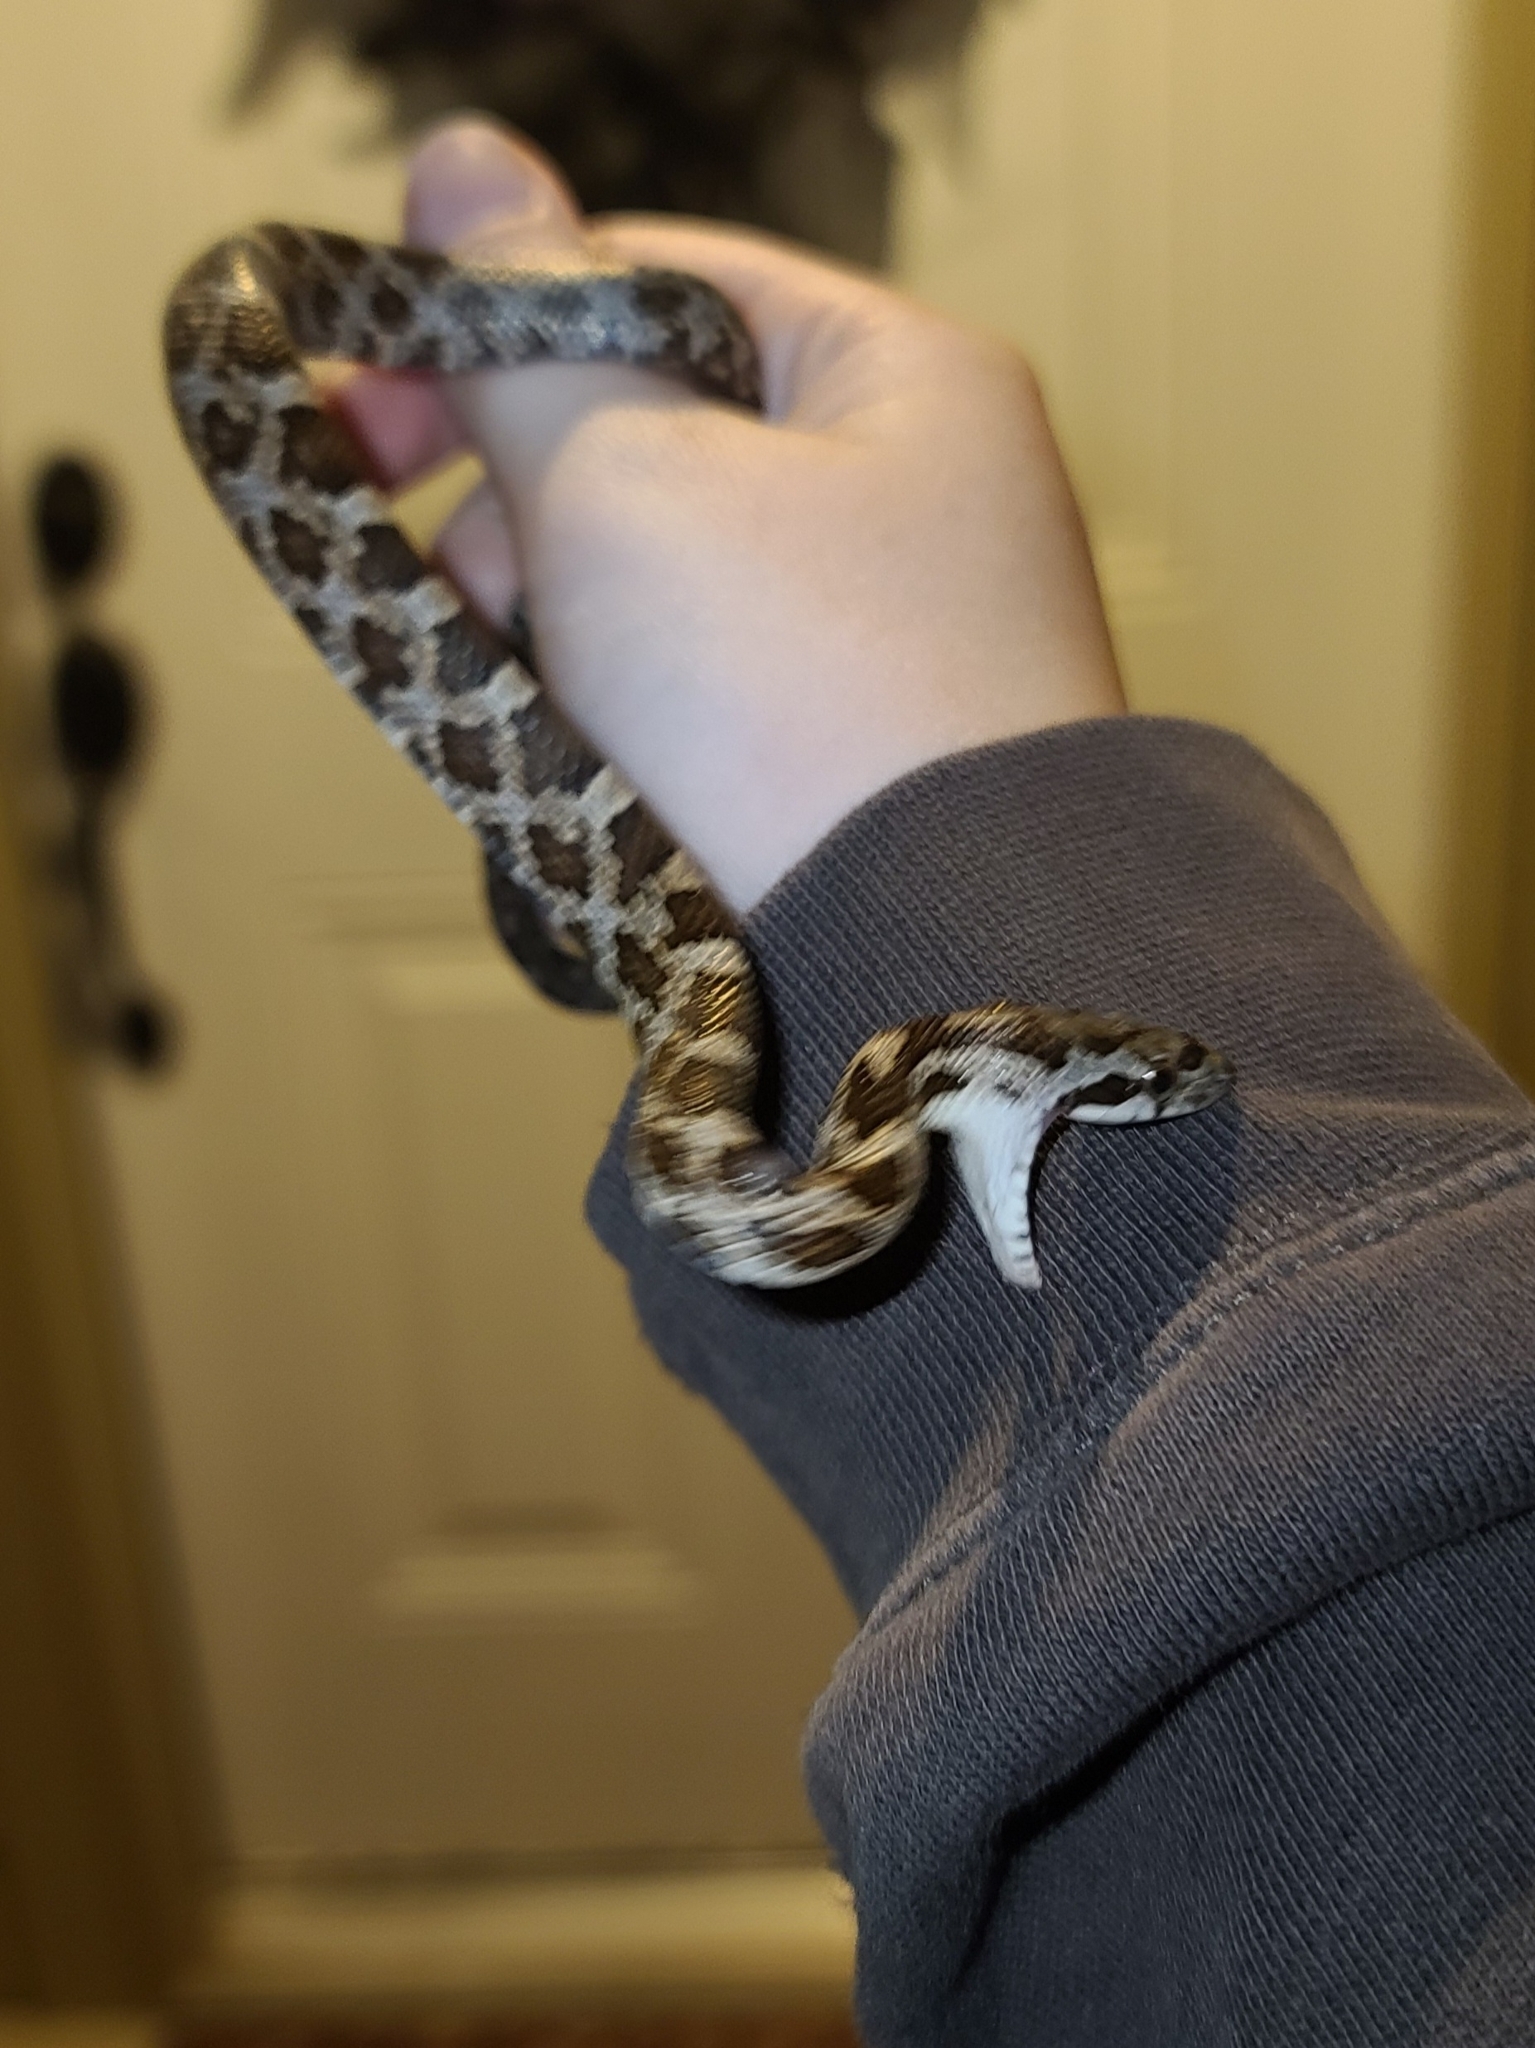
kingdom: Animalia
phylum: Chordata
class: Squamata
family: Colubridae
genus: Pantherophis
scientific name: Pantherophis obsoletus
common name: Black rat snake
